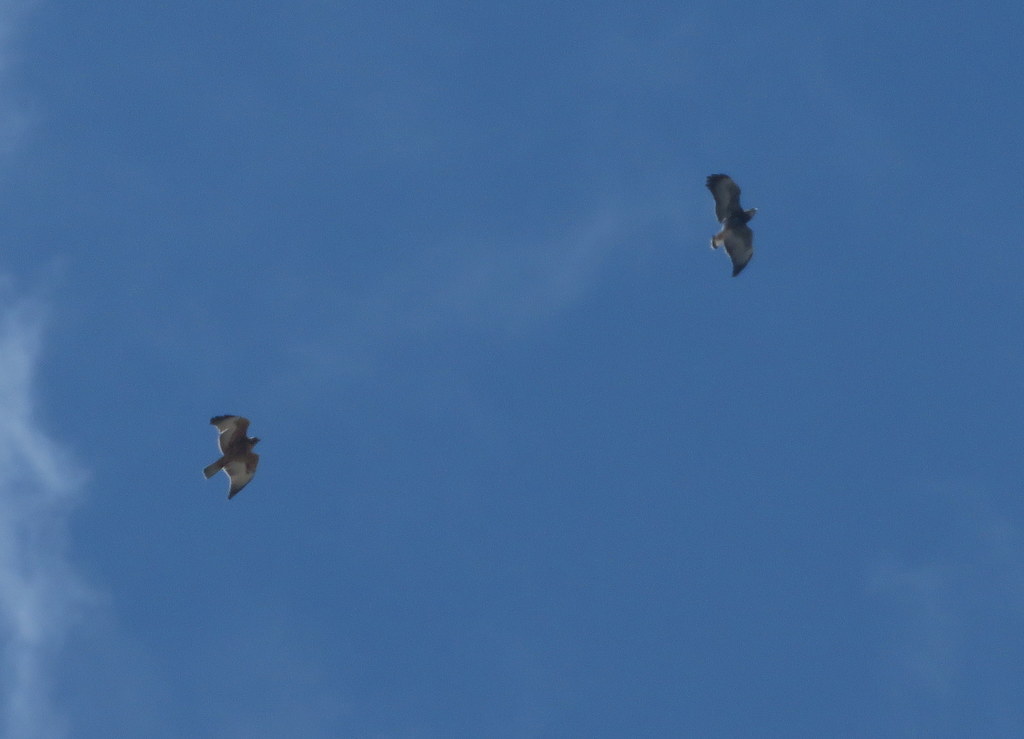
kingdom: Animalia
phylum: Chordata
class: Aves
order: Accipitriformes
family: Accipitridae
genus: Buteo
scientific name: Buteo polyosoma
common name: Variable hawk
